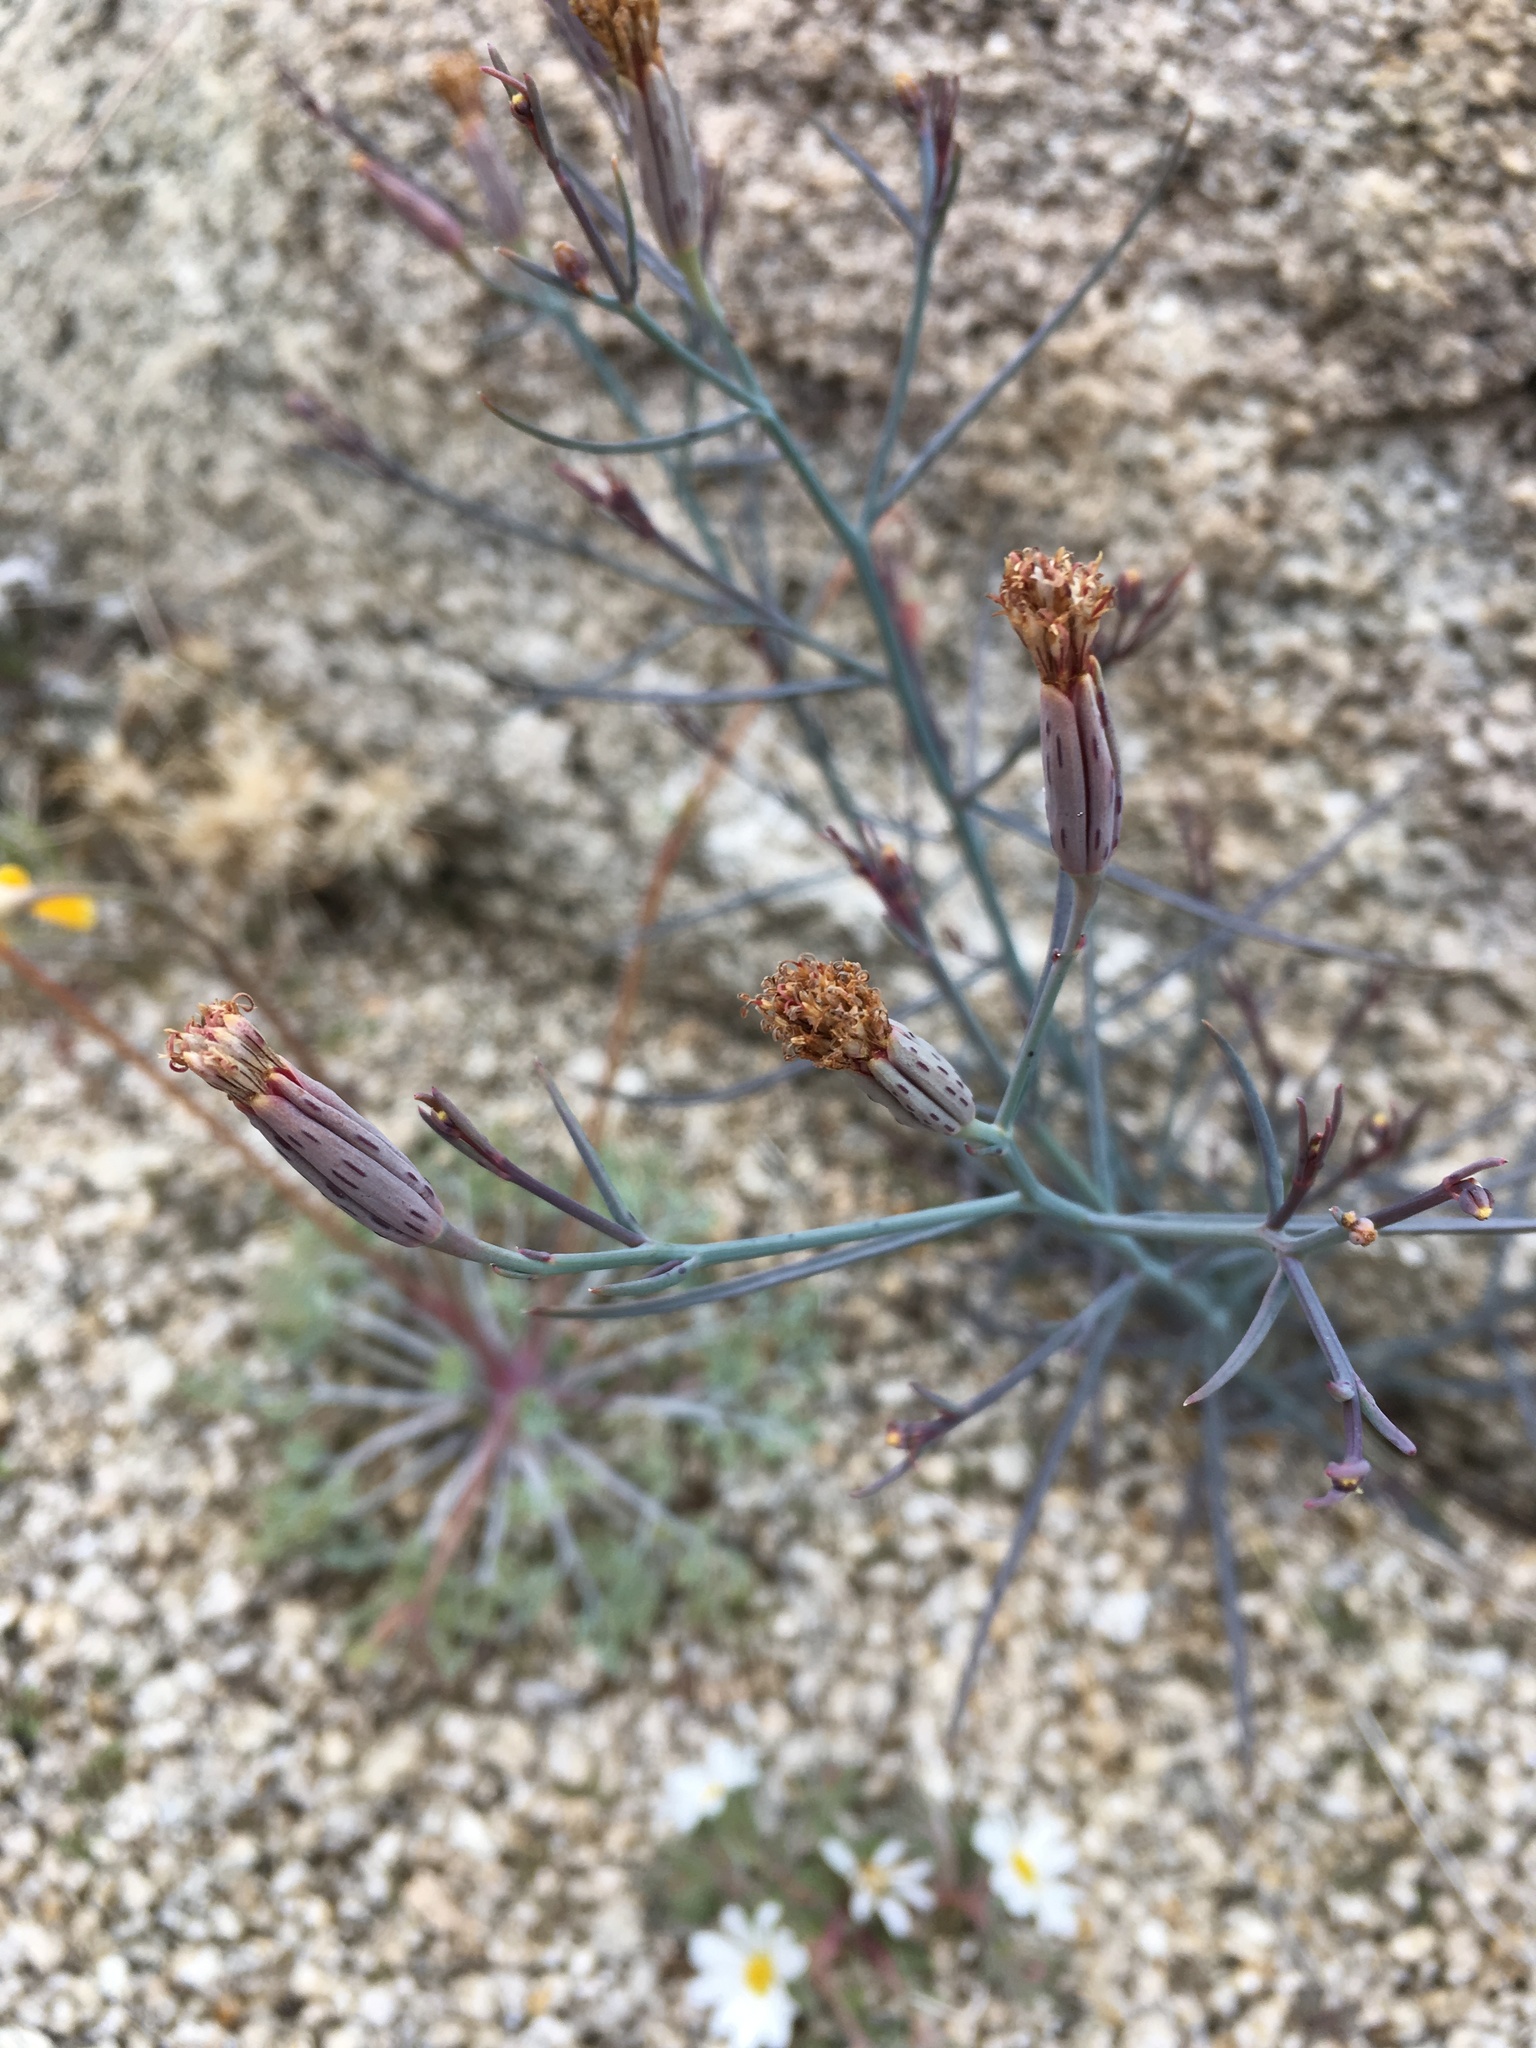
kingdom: Plantae
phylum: Tracheophyta
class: Magnoliopsida
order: Asterales
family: Asteraceae
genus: Porophyllum
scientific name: Porophyllum gracile
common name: Odora
